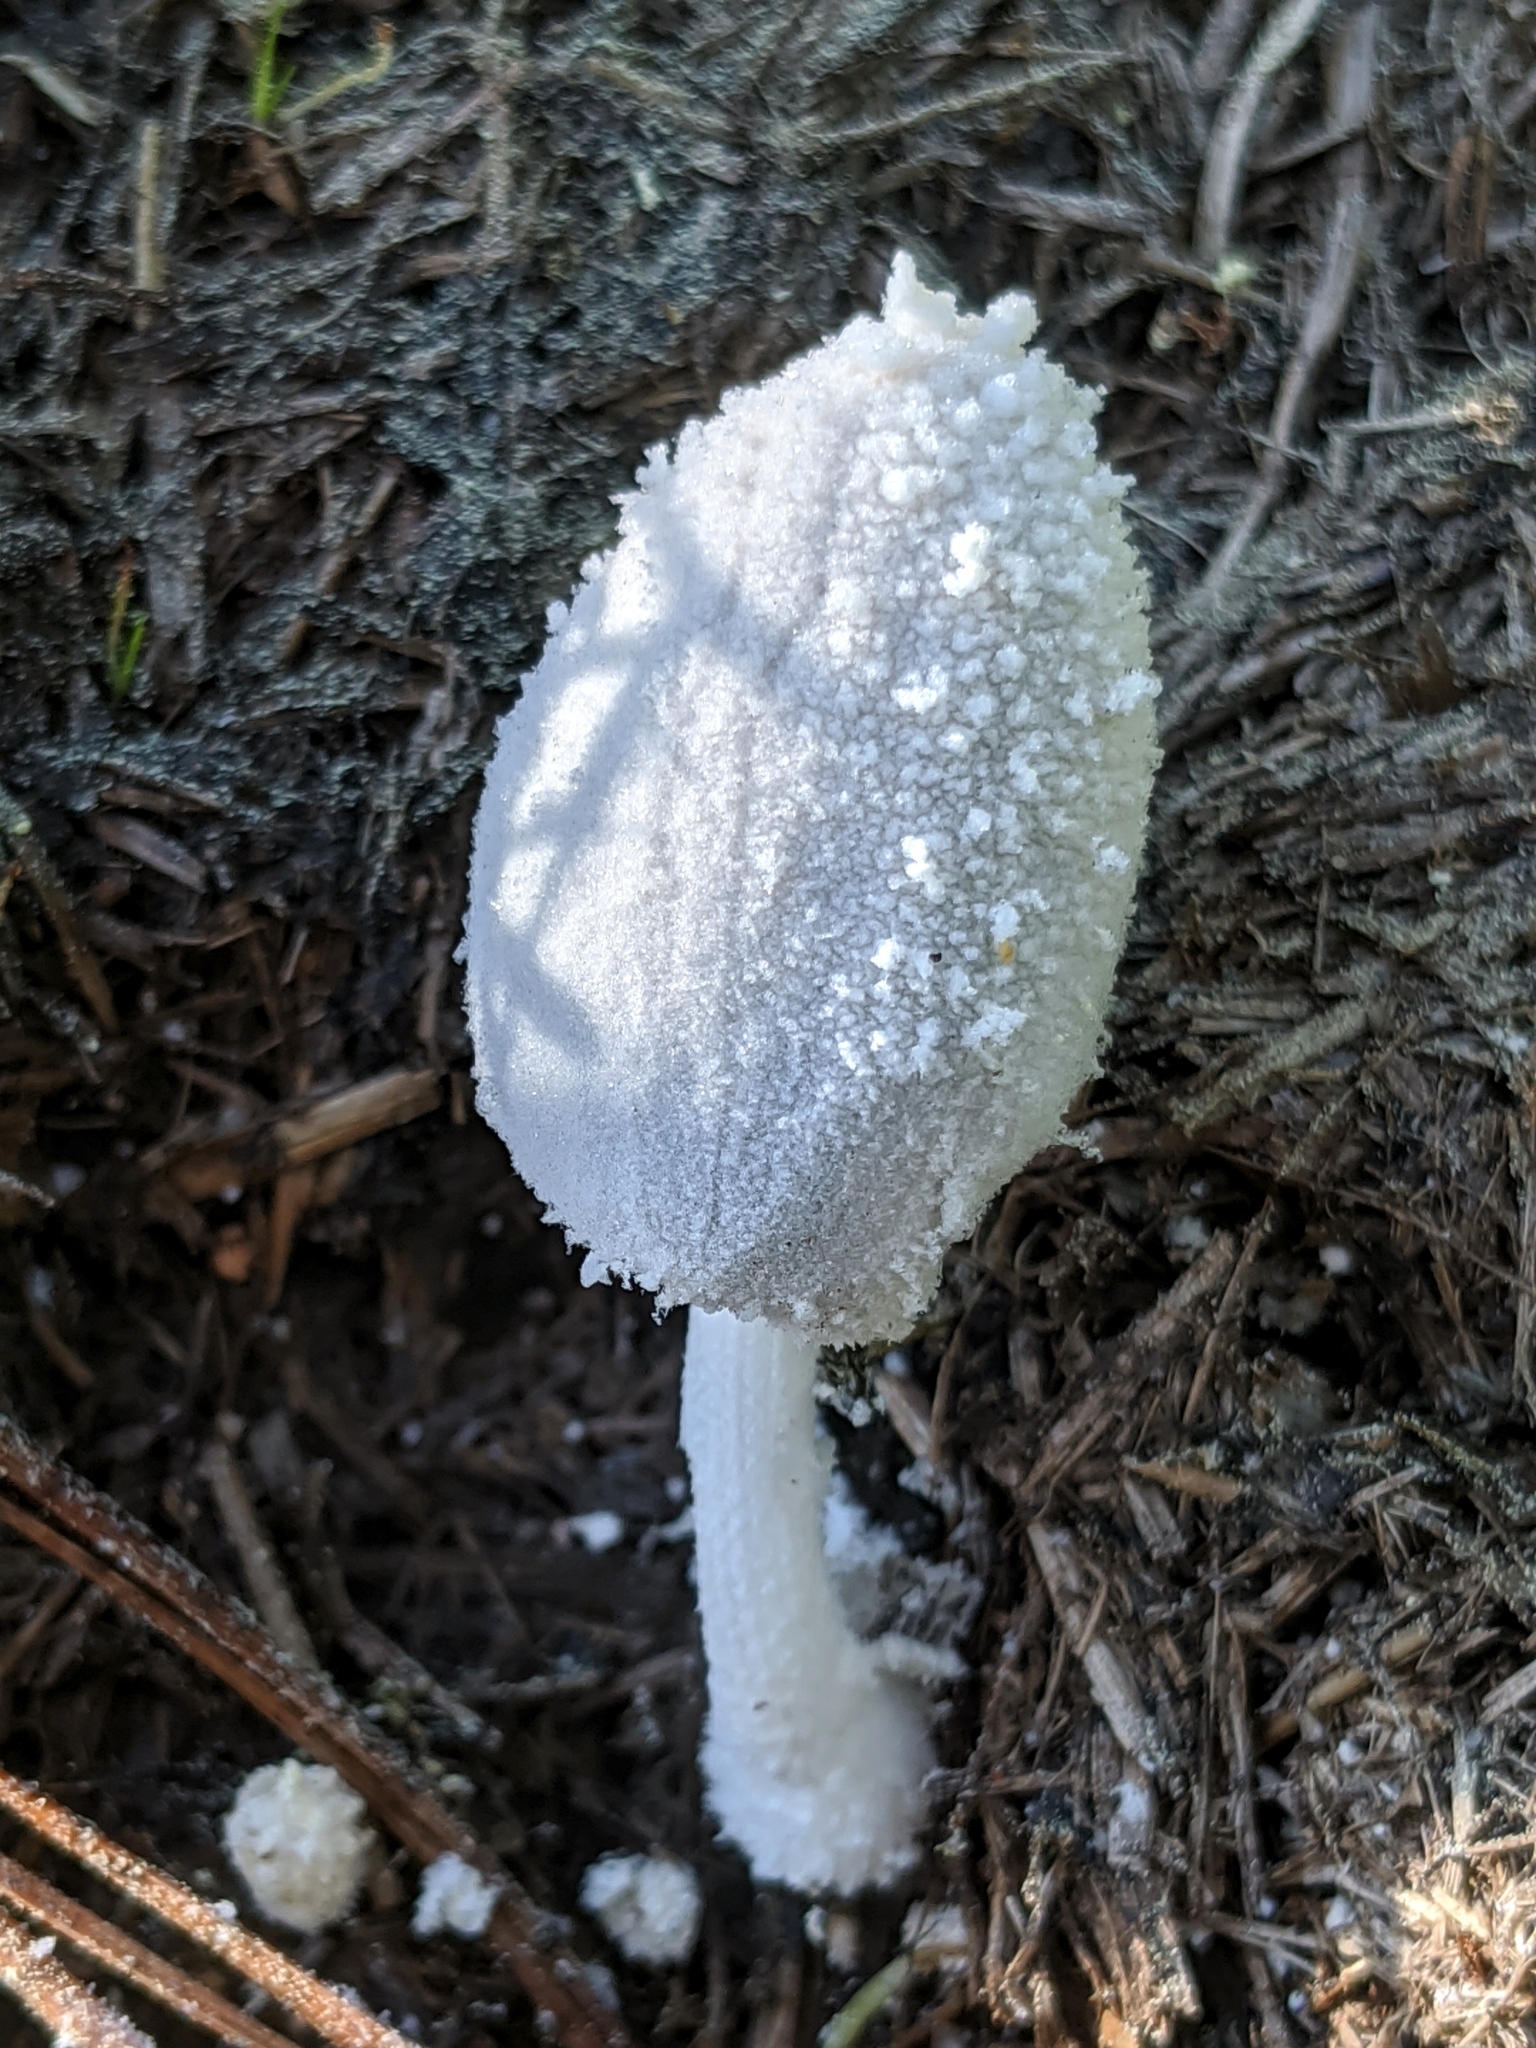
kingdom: Fungi
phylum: Basidiomycota
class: Agaricomycetes
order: Agaricales
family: Psathyrellaceae
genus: Coprinopsis
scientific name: Coprinopsis nivea
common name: Snowy inkcap
